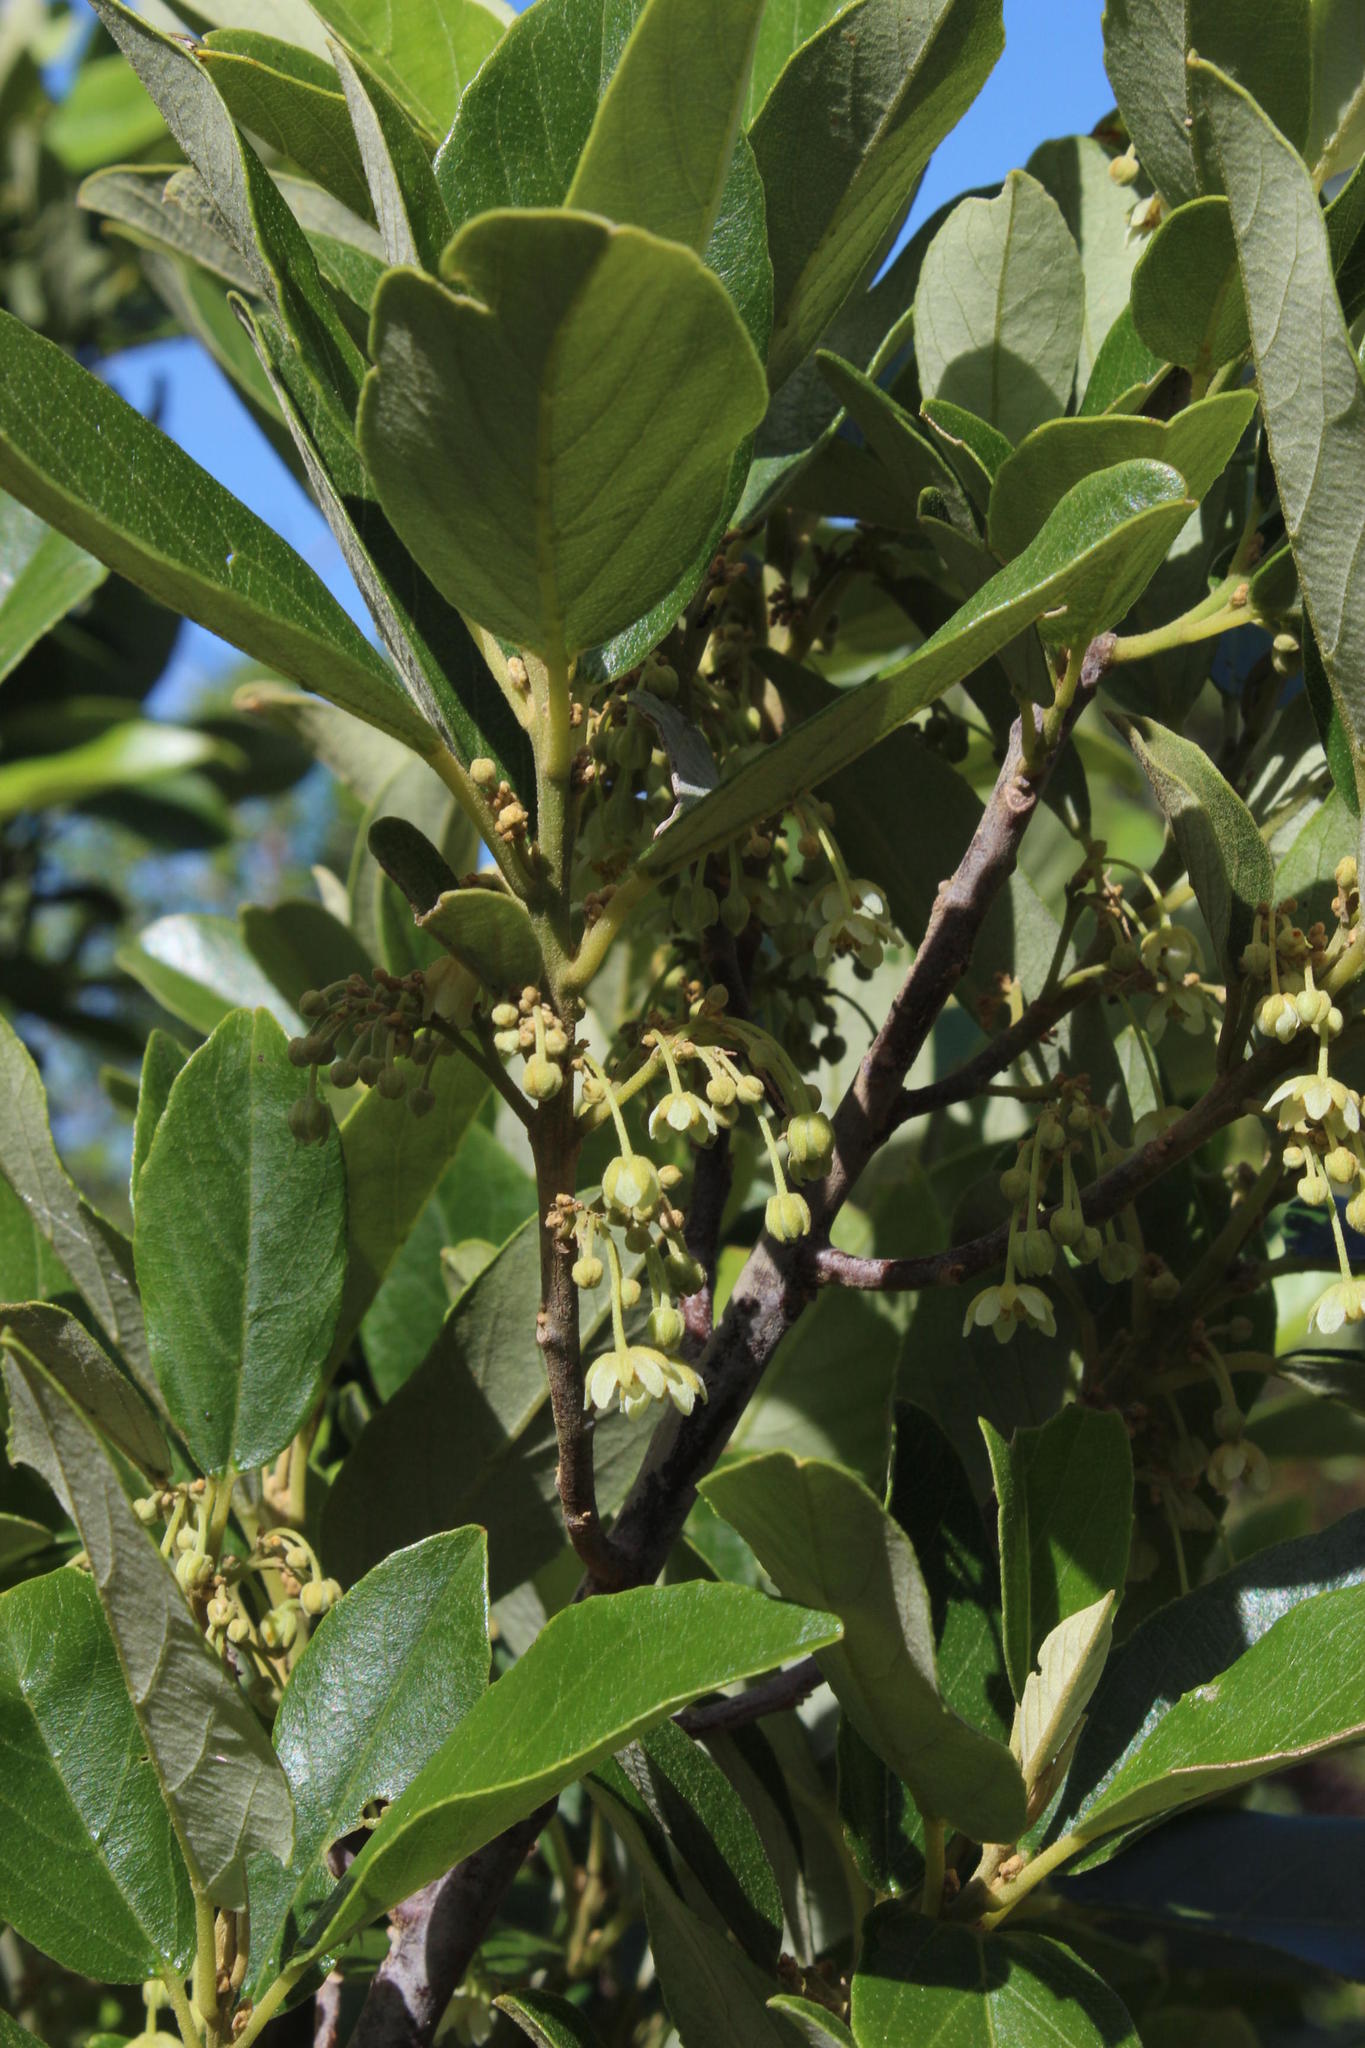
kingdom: Plantae
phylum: Tracheophyta
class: Magnoliopsida
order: Malpighiales
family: Achariaceae
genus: Kiggelaria
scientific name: Kiggelaria africana
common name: Wild peach
